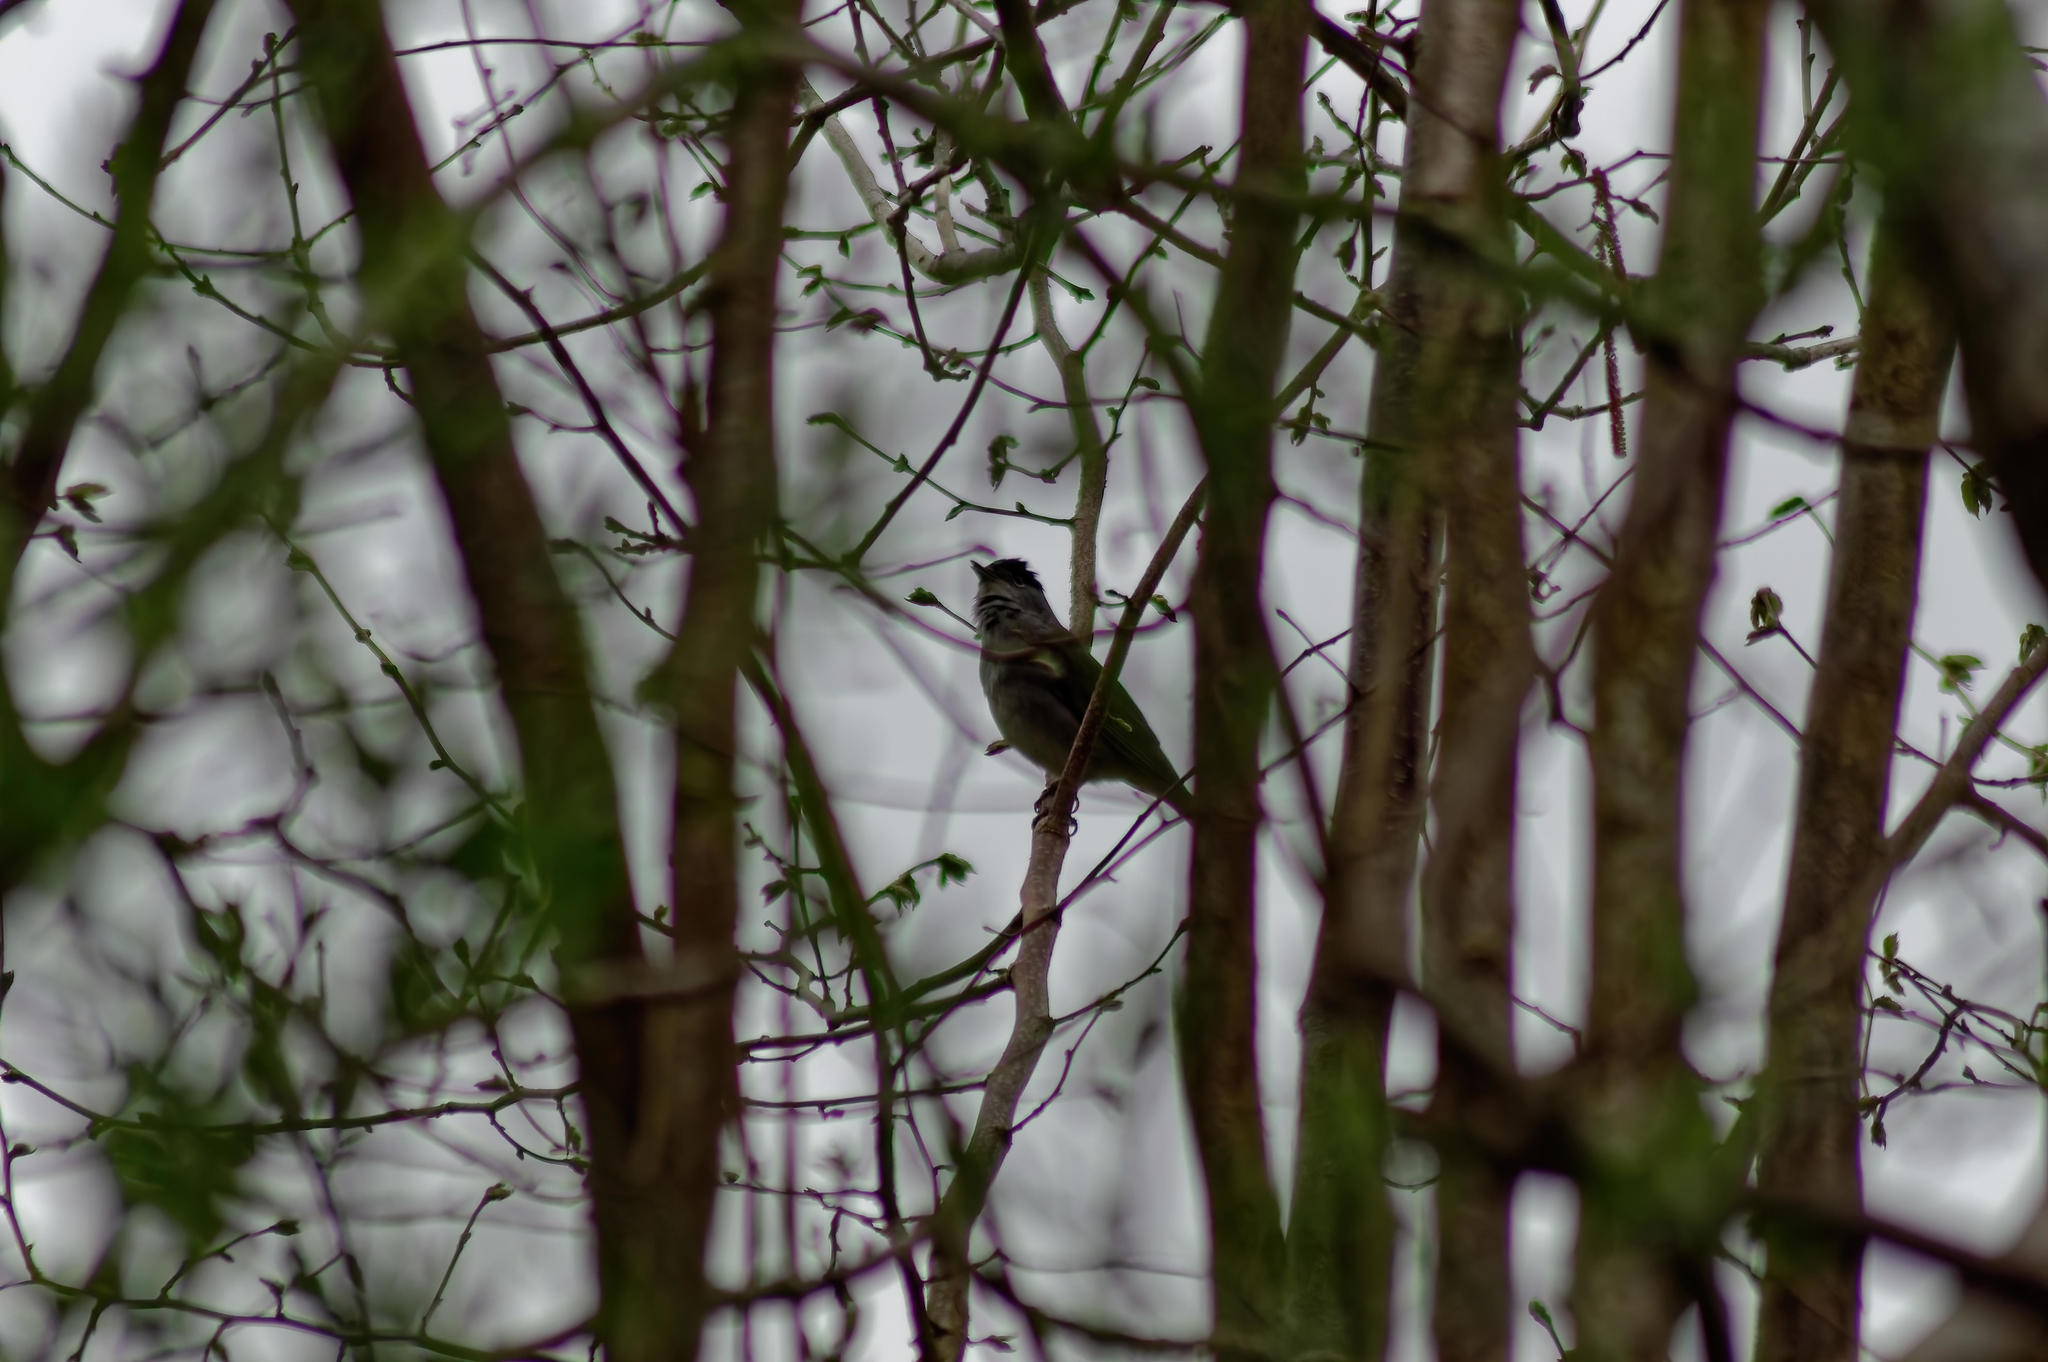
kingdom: Animalia
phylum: Chordata
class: Aves
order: Passeriformes
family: Sylviidae
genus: Sylvia
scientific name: Sylvia atricapilla
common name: Eurasian blackcap
